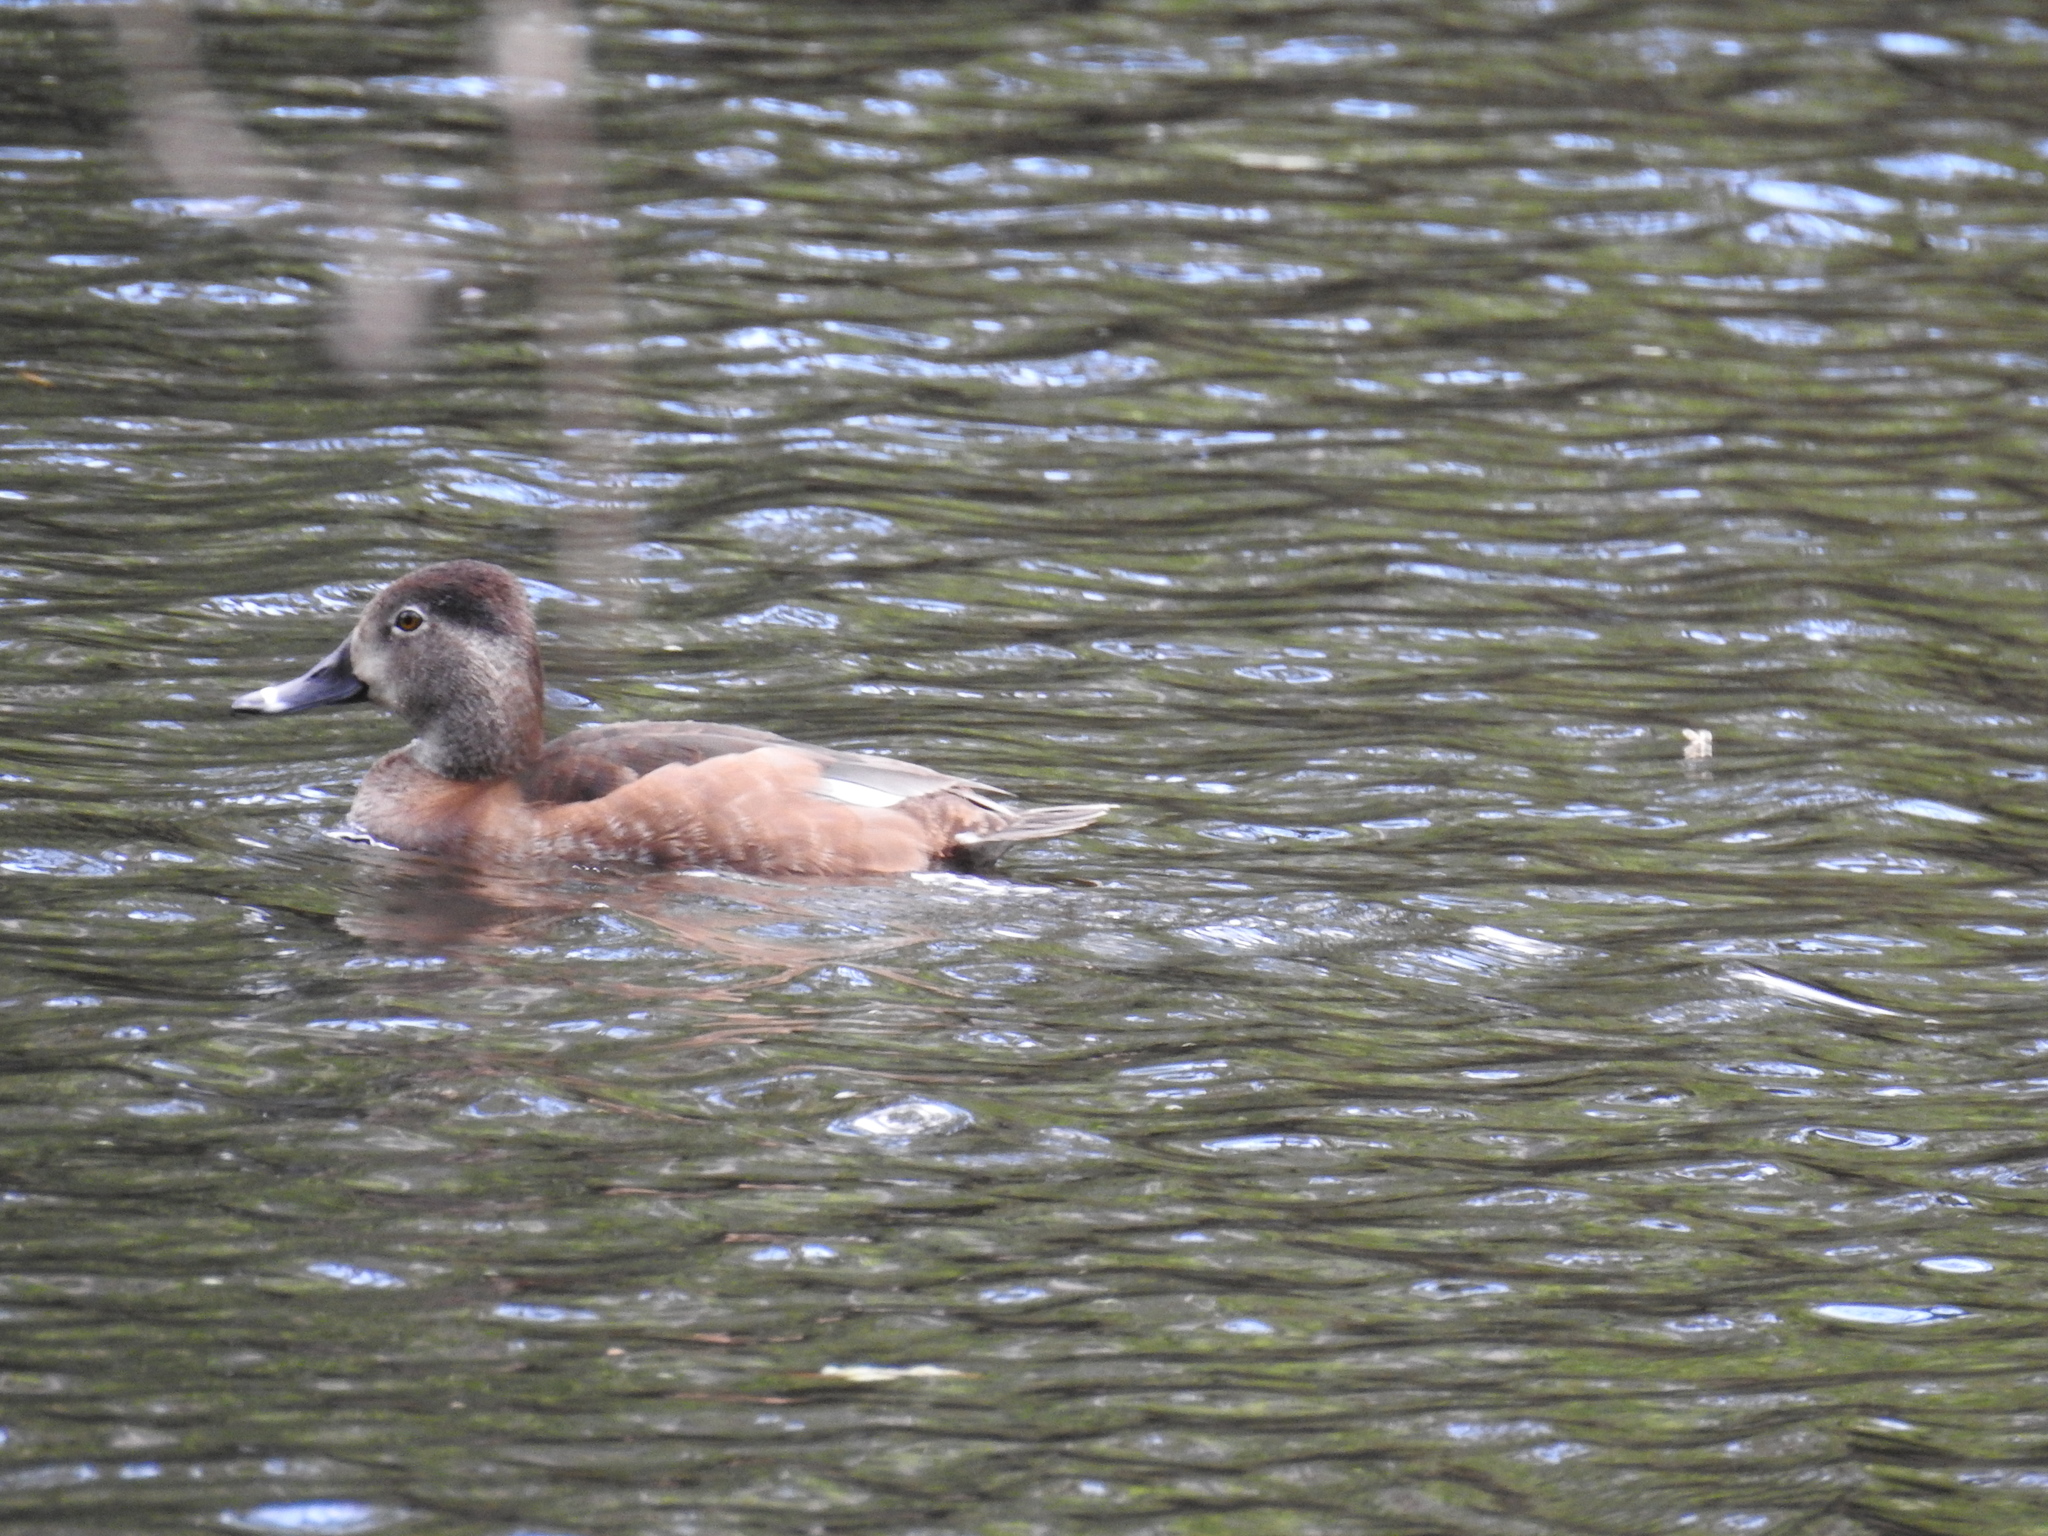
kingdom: Animalia
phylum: Chordata
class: Aves
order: Anseriformes
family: Anatidae
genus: Aythya
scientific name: Aythya collaris
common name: Ring-necked duck
